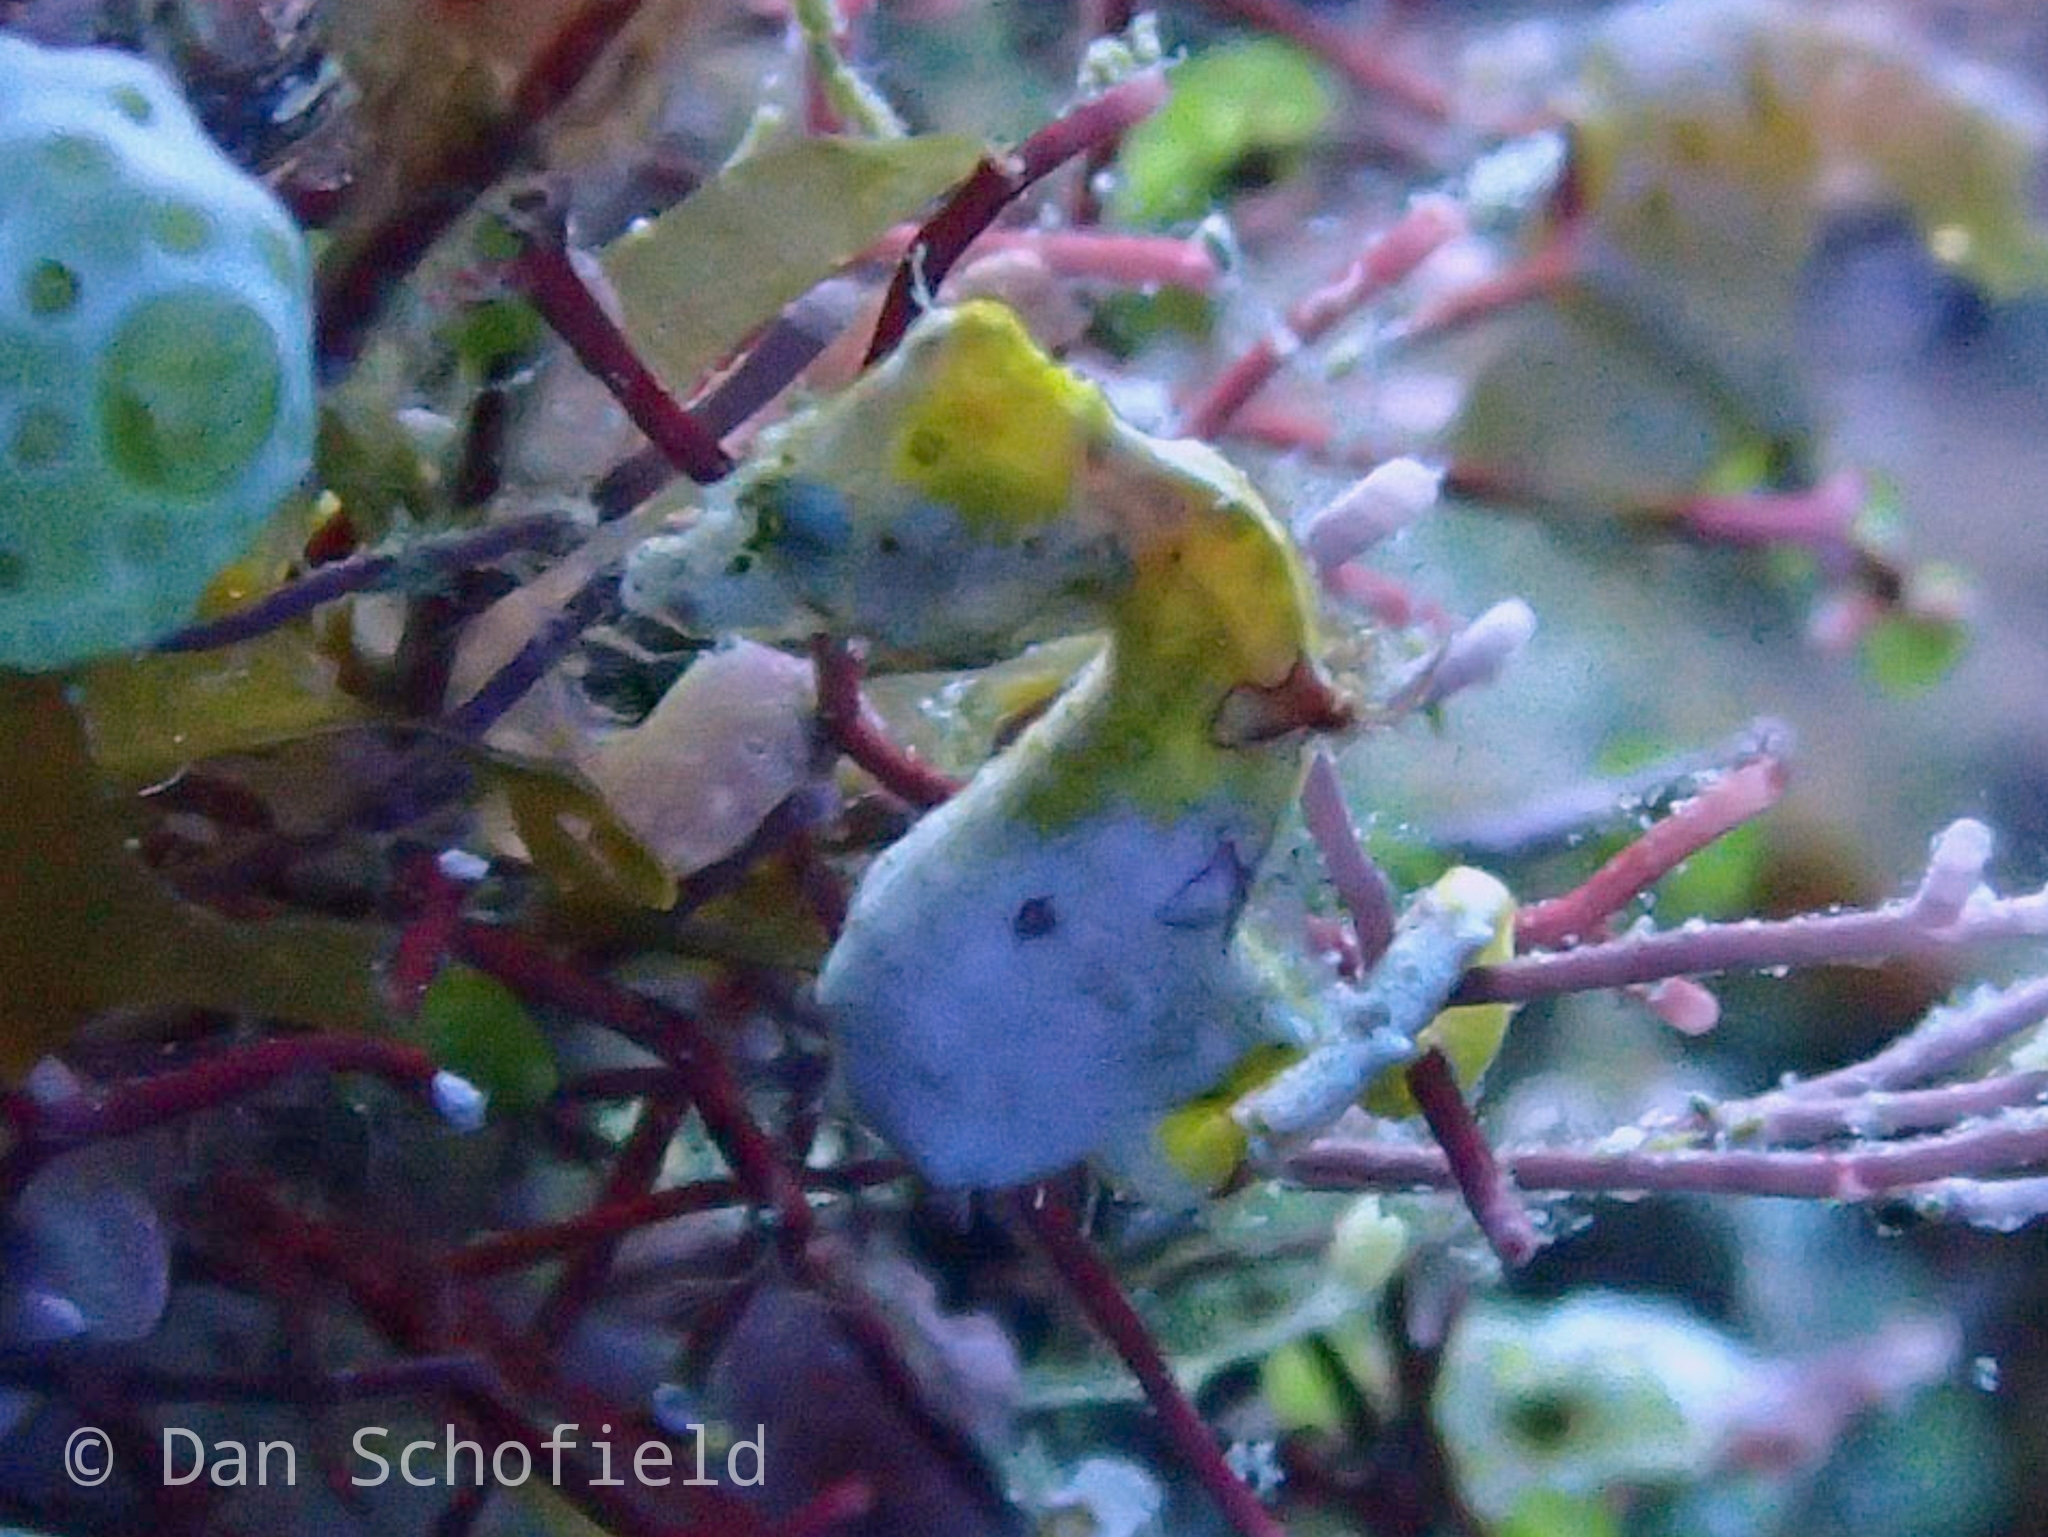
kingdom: Animalia
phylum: Chordata
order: Syngnathiformes
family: Syngnathidae
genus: Hippocampus
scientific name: Hippocampus pontohi
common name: Pontoh`s pygmy seahorse
